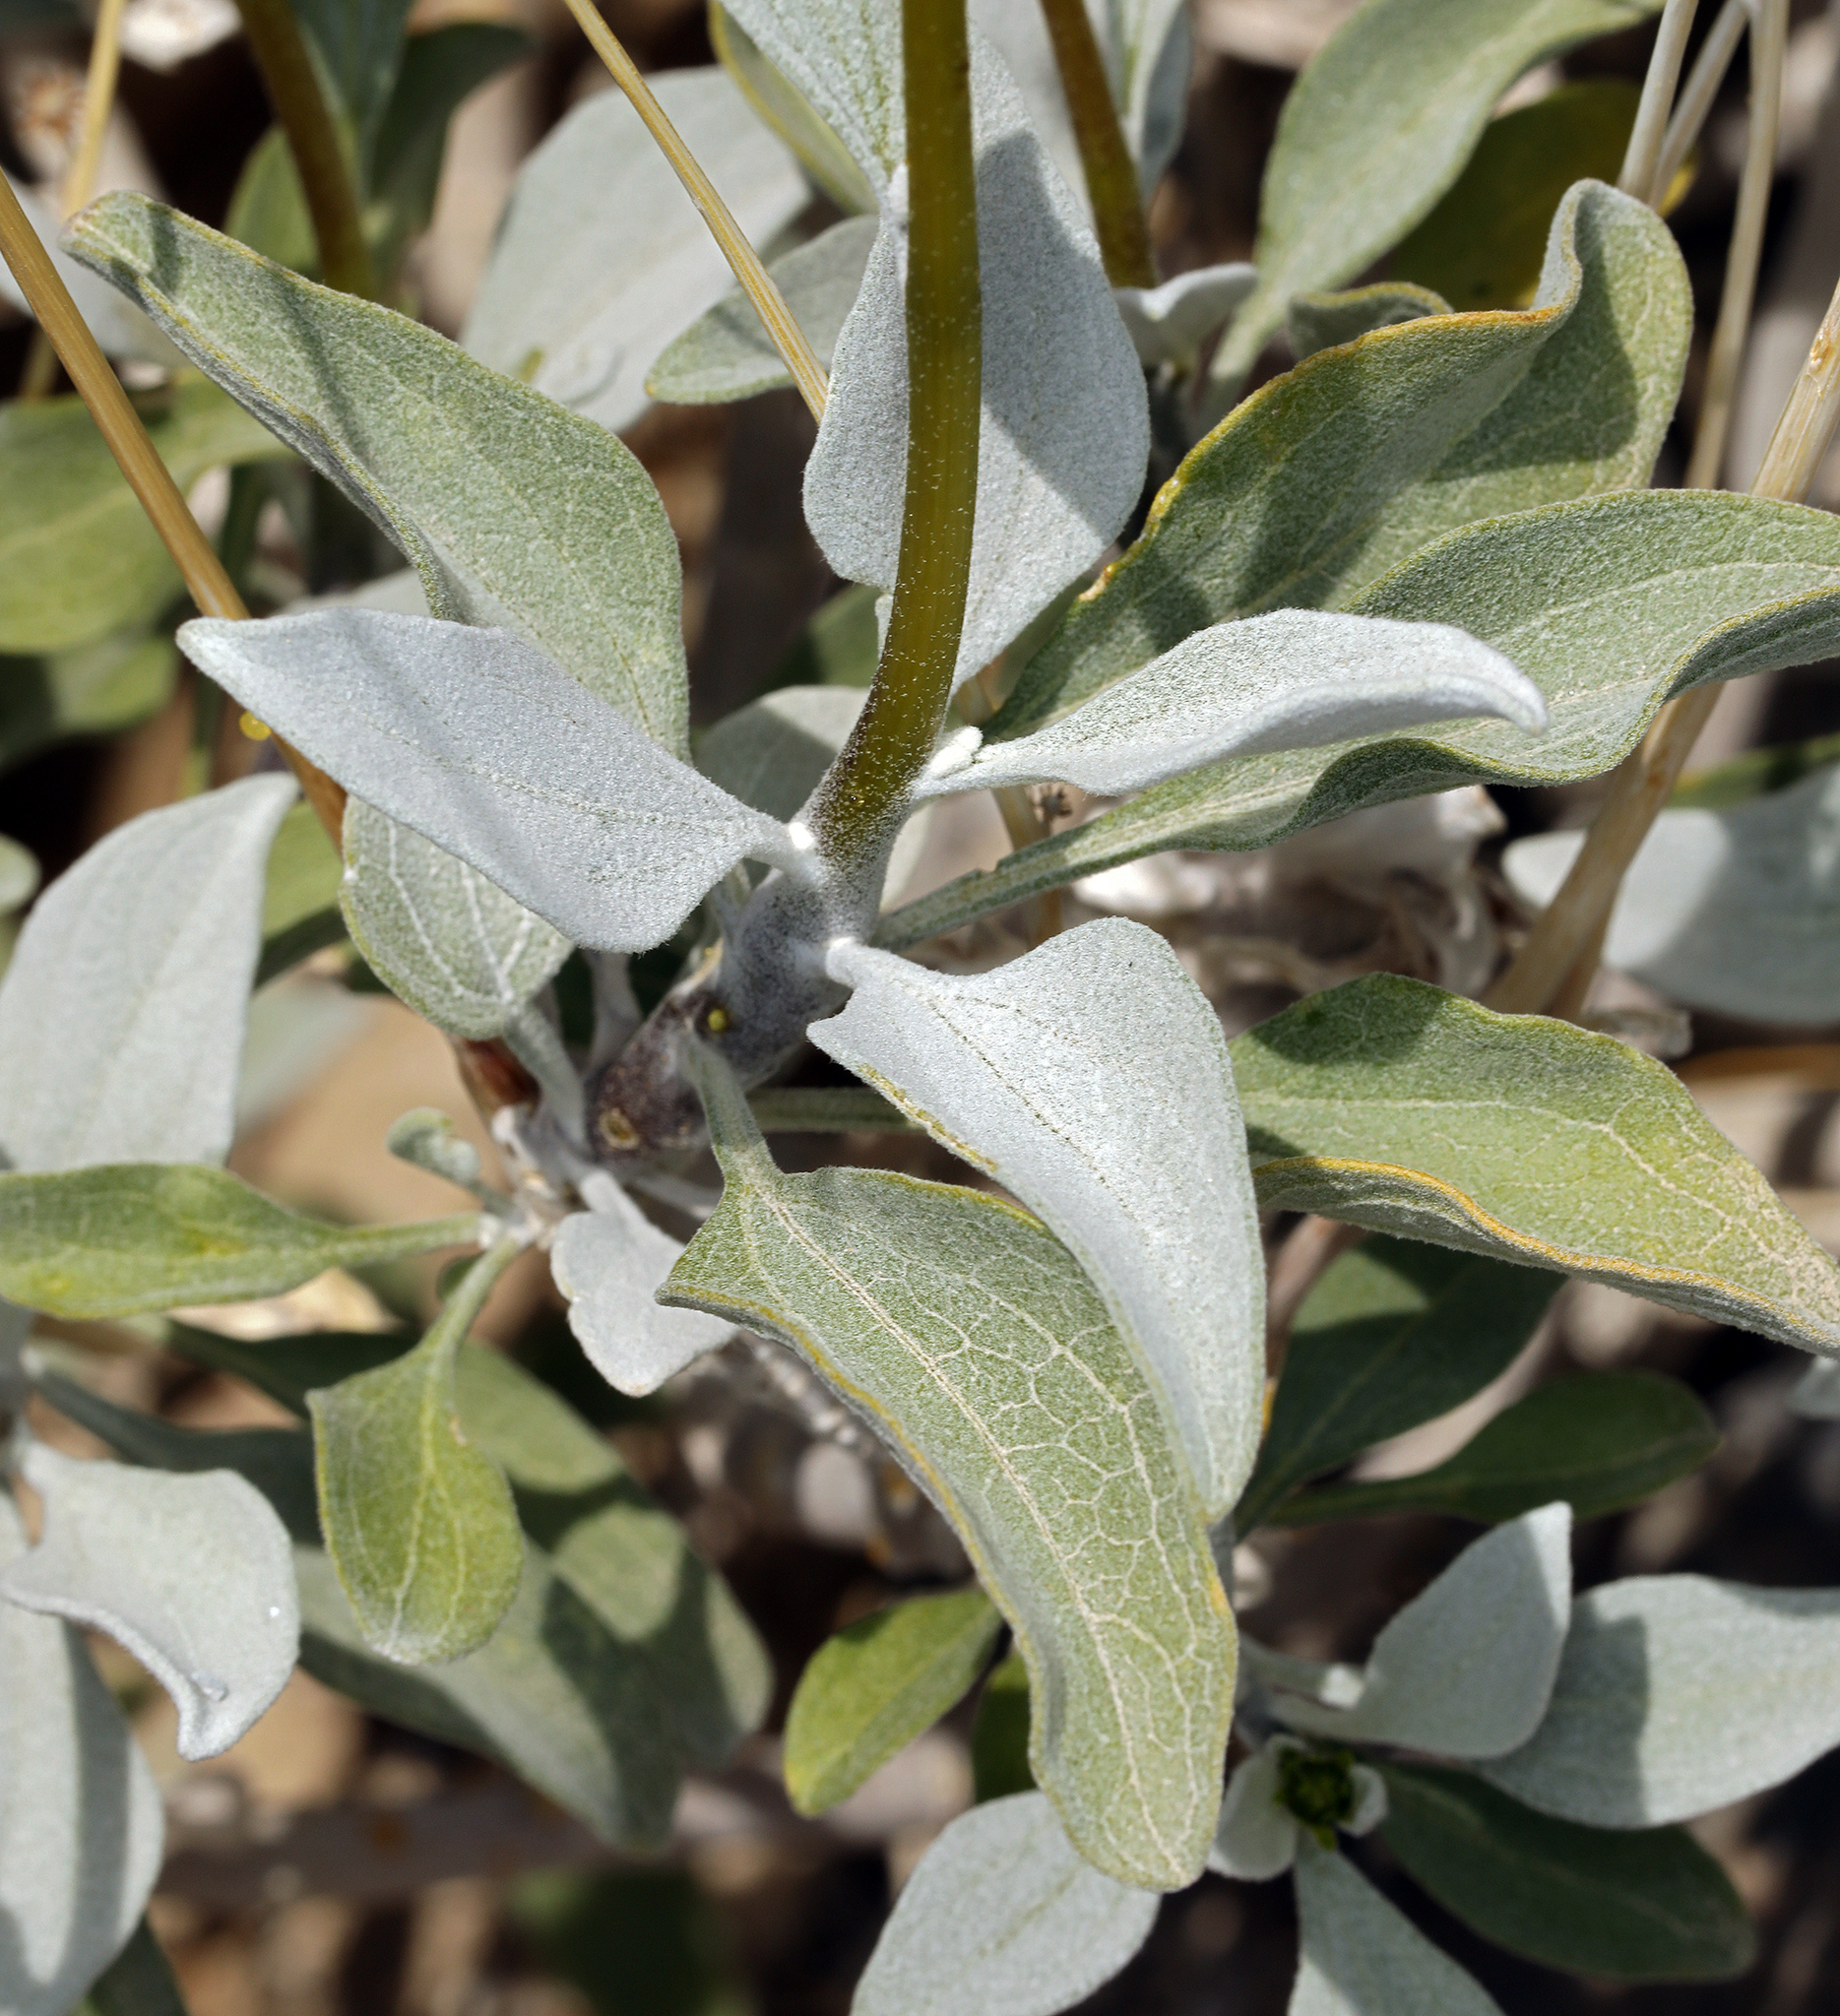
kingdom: Plantae
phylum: Tracheophyta
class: Magnoliopsida
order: Asterales
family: Asteraceae
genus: Encelia
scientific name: Encelia farinosa
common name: Brittlebush
